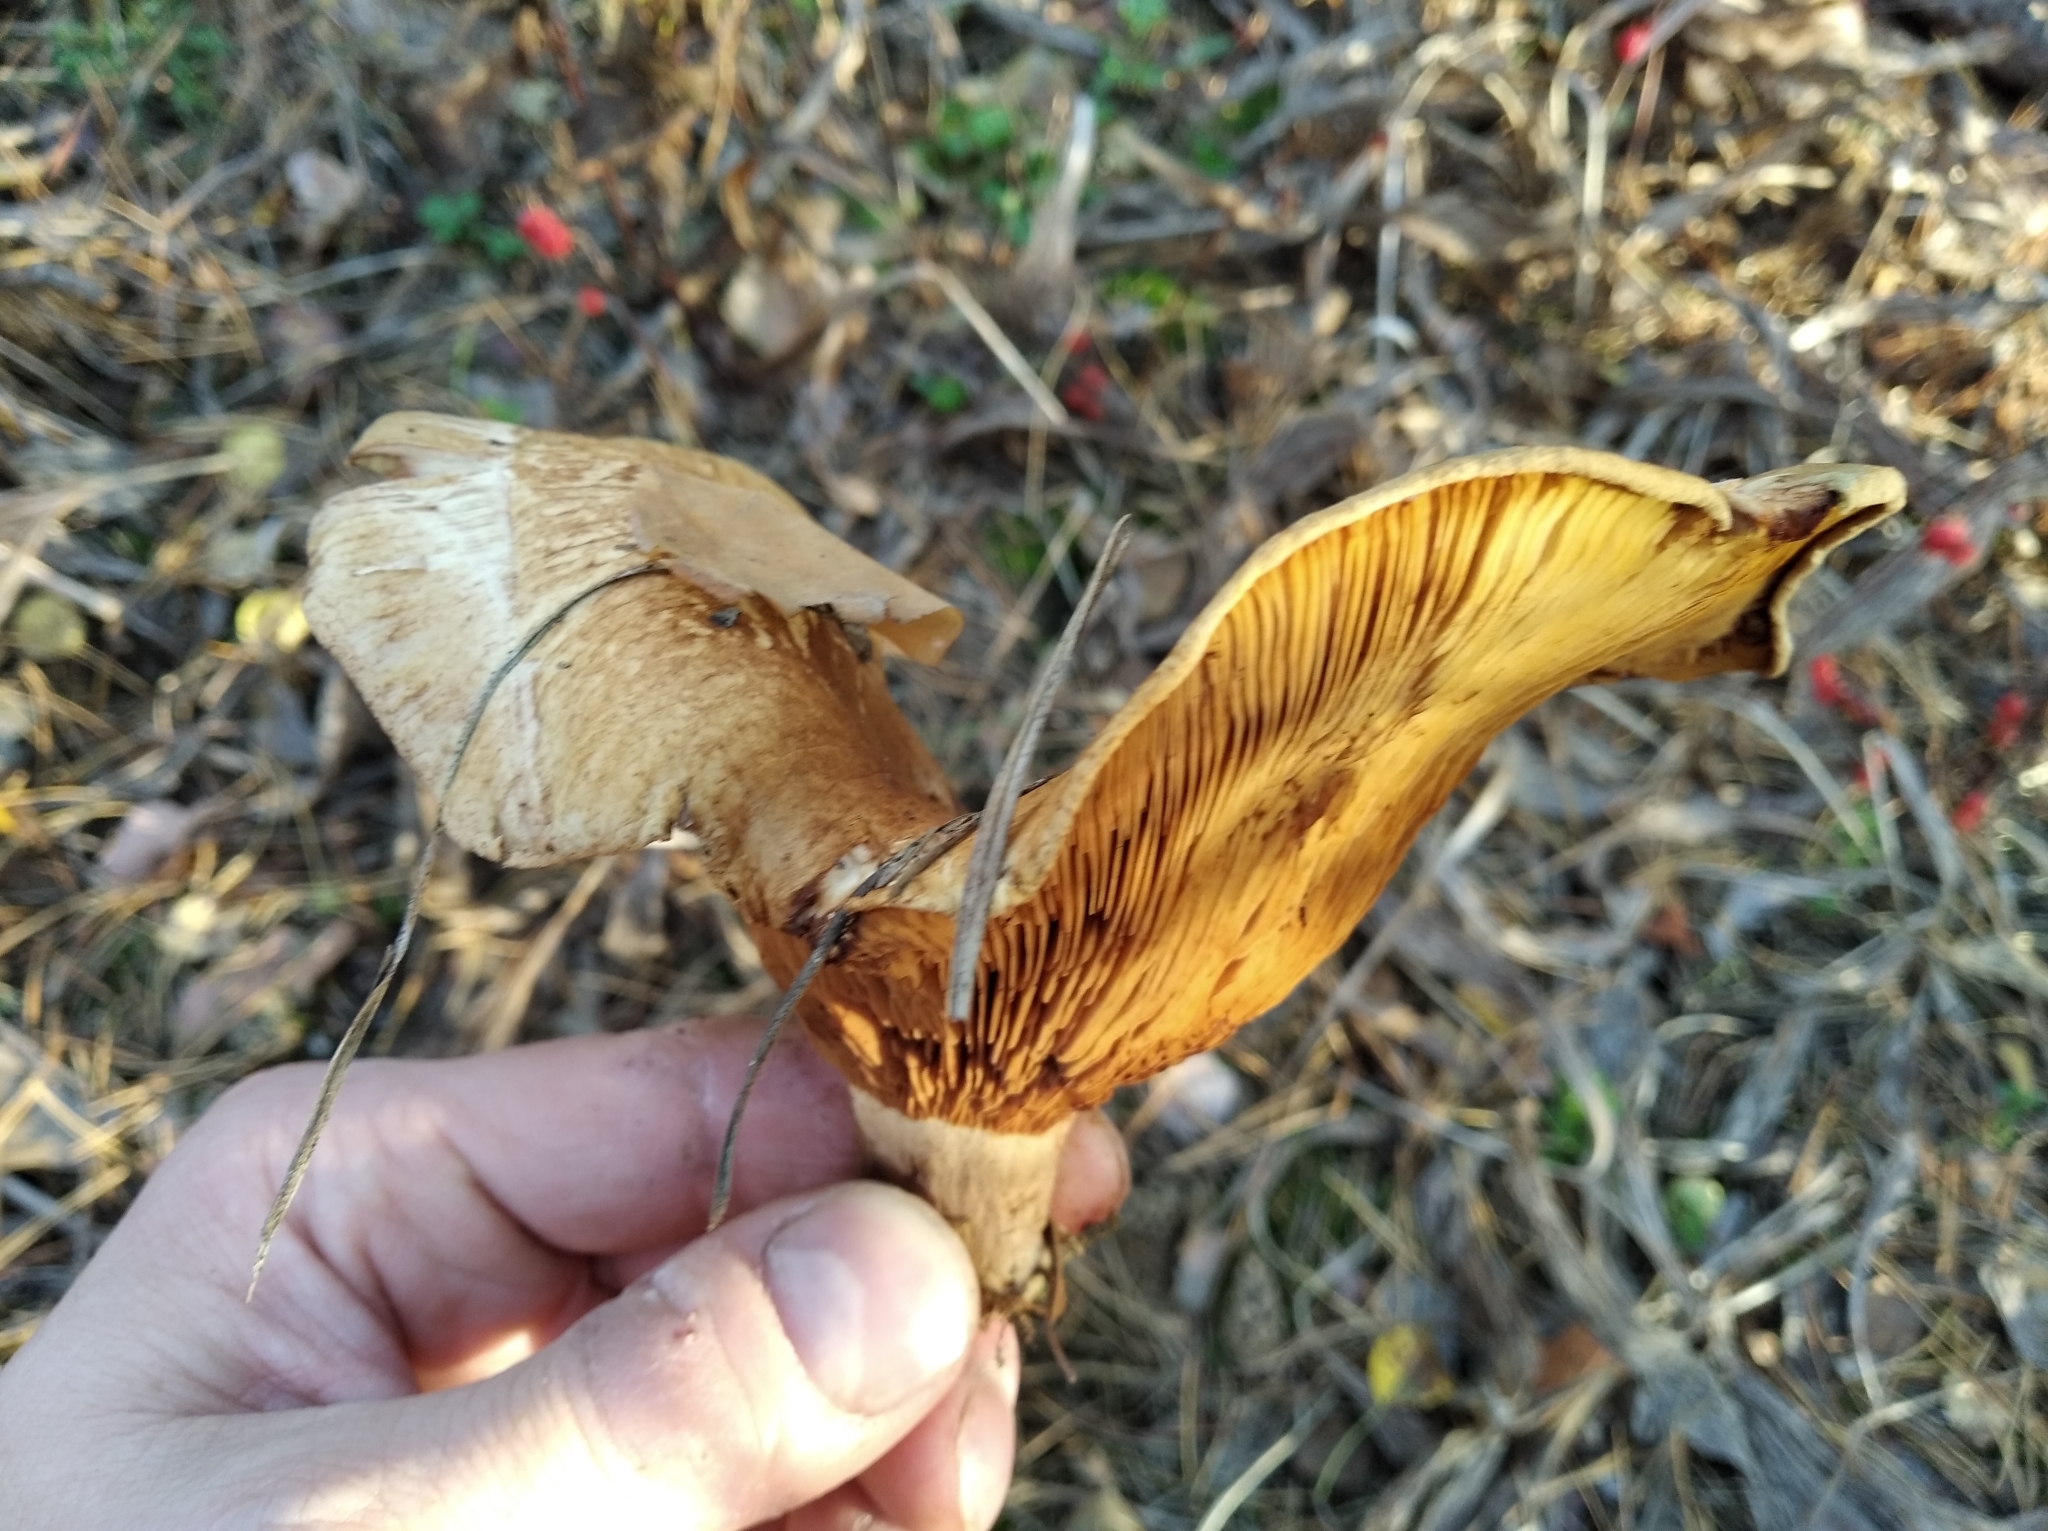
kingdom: Fungi
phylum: Basidiomycota
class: Agaricomycetes
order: Boletales
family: Paxillaceae
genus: Paxillus
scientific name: Paxillus involutus
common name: Brown roll rim
